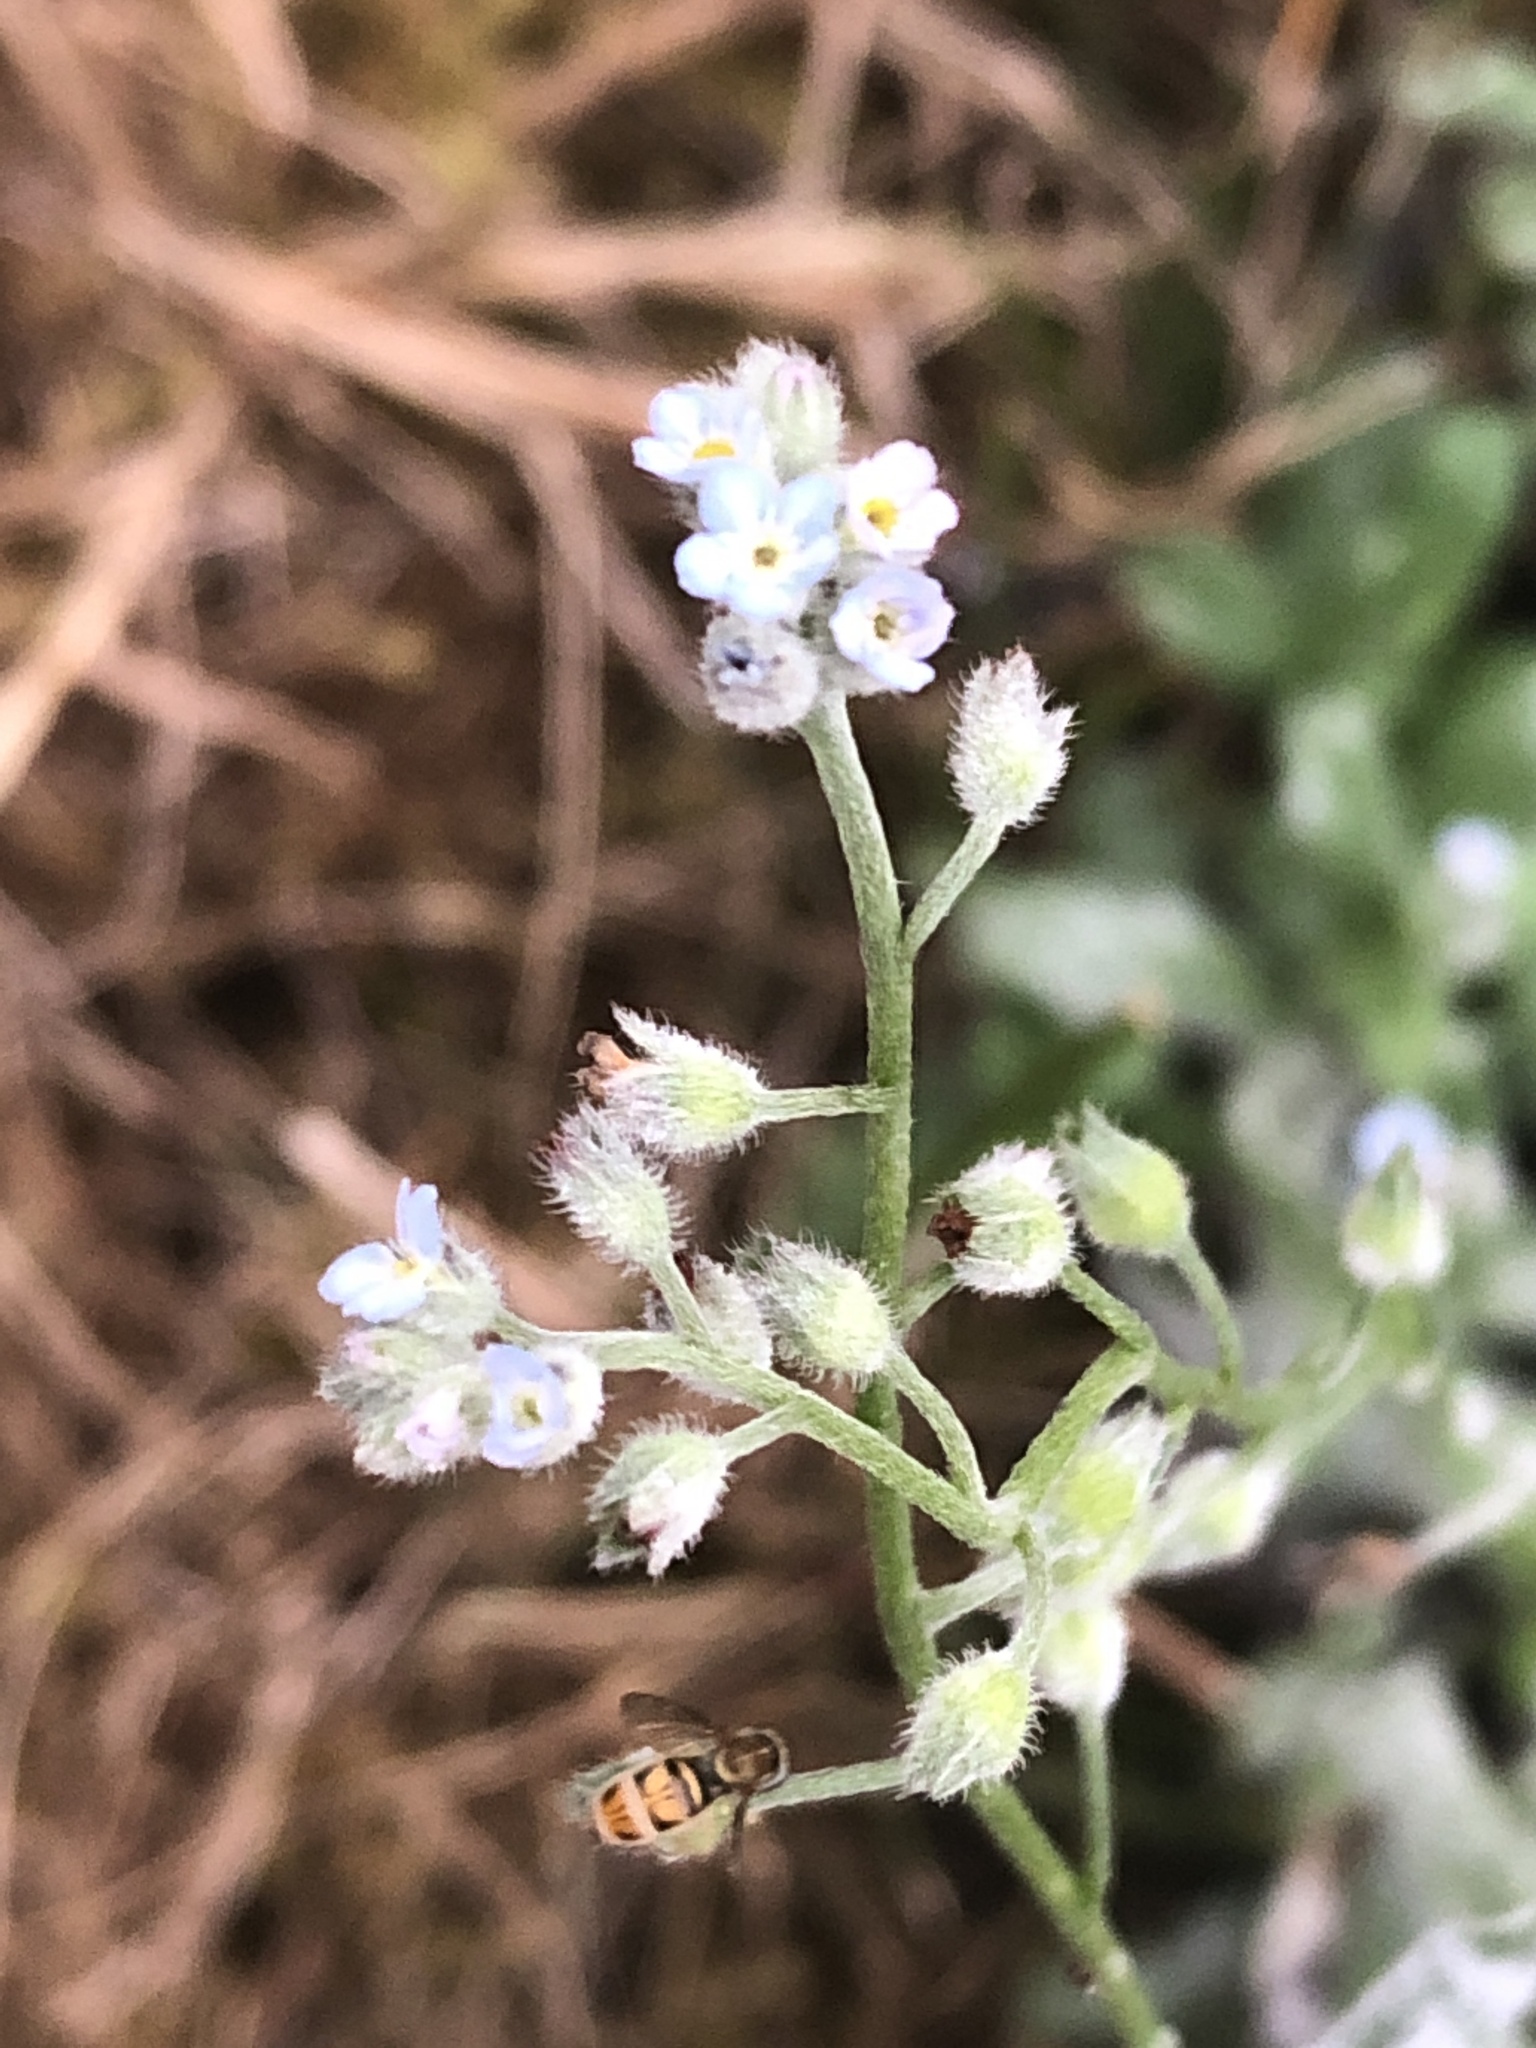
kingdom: Animalia
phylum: Arthropoda
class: Insecta
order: Diptera
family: Syrphidae
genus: Toxomerus
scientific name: Toxomerus marginatus
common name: Syrphid fly
